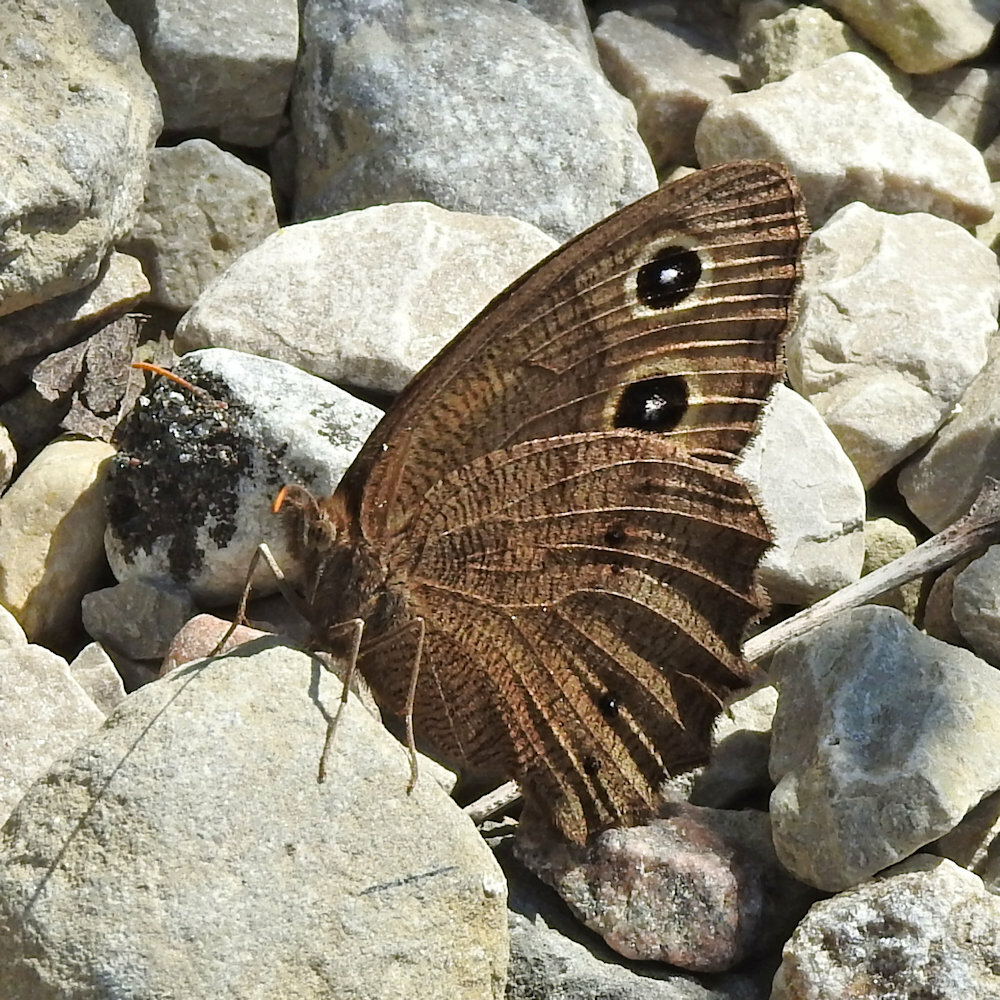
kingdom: Animalia
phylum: Arthropoda
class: Insecta
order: Lepidoptera
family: Nymphalidae
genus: Cercyonis
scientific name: Cercyonis pegala
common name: Common wood-nymph
